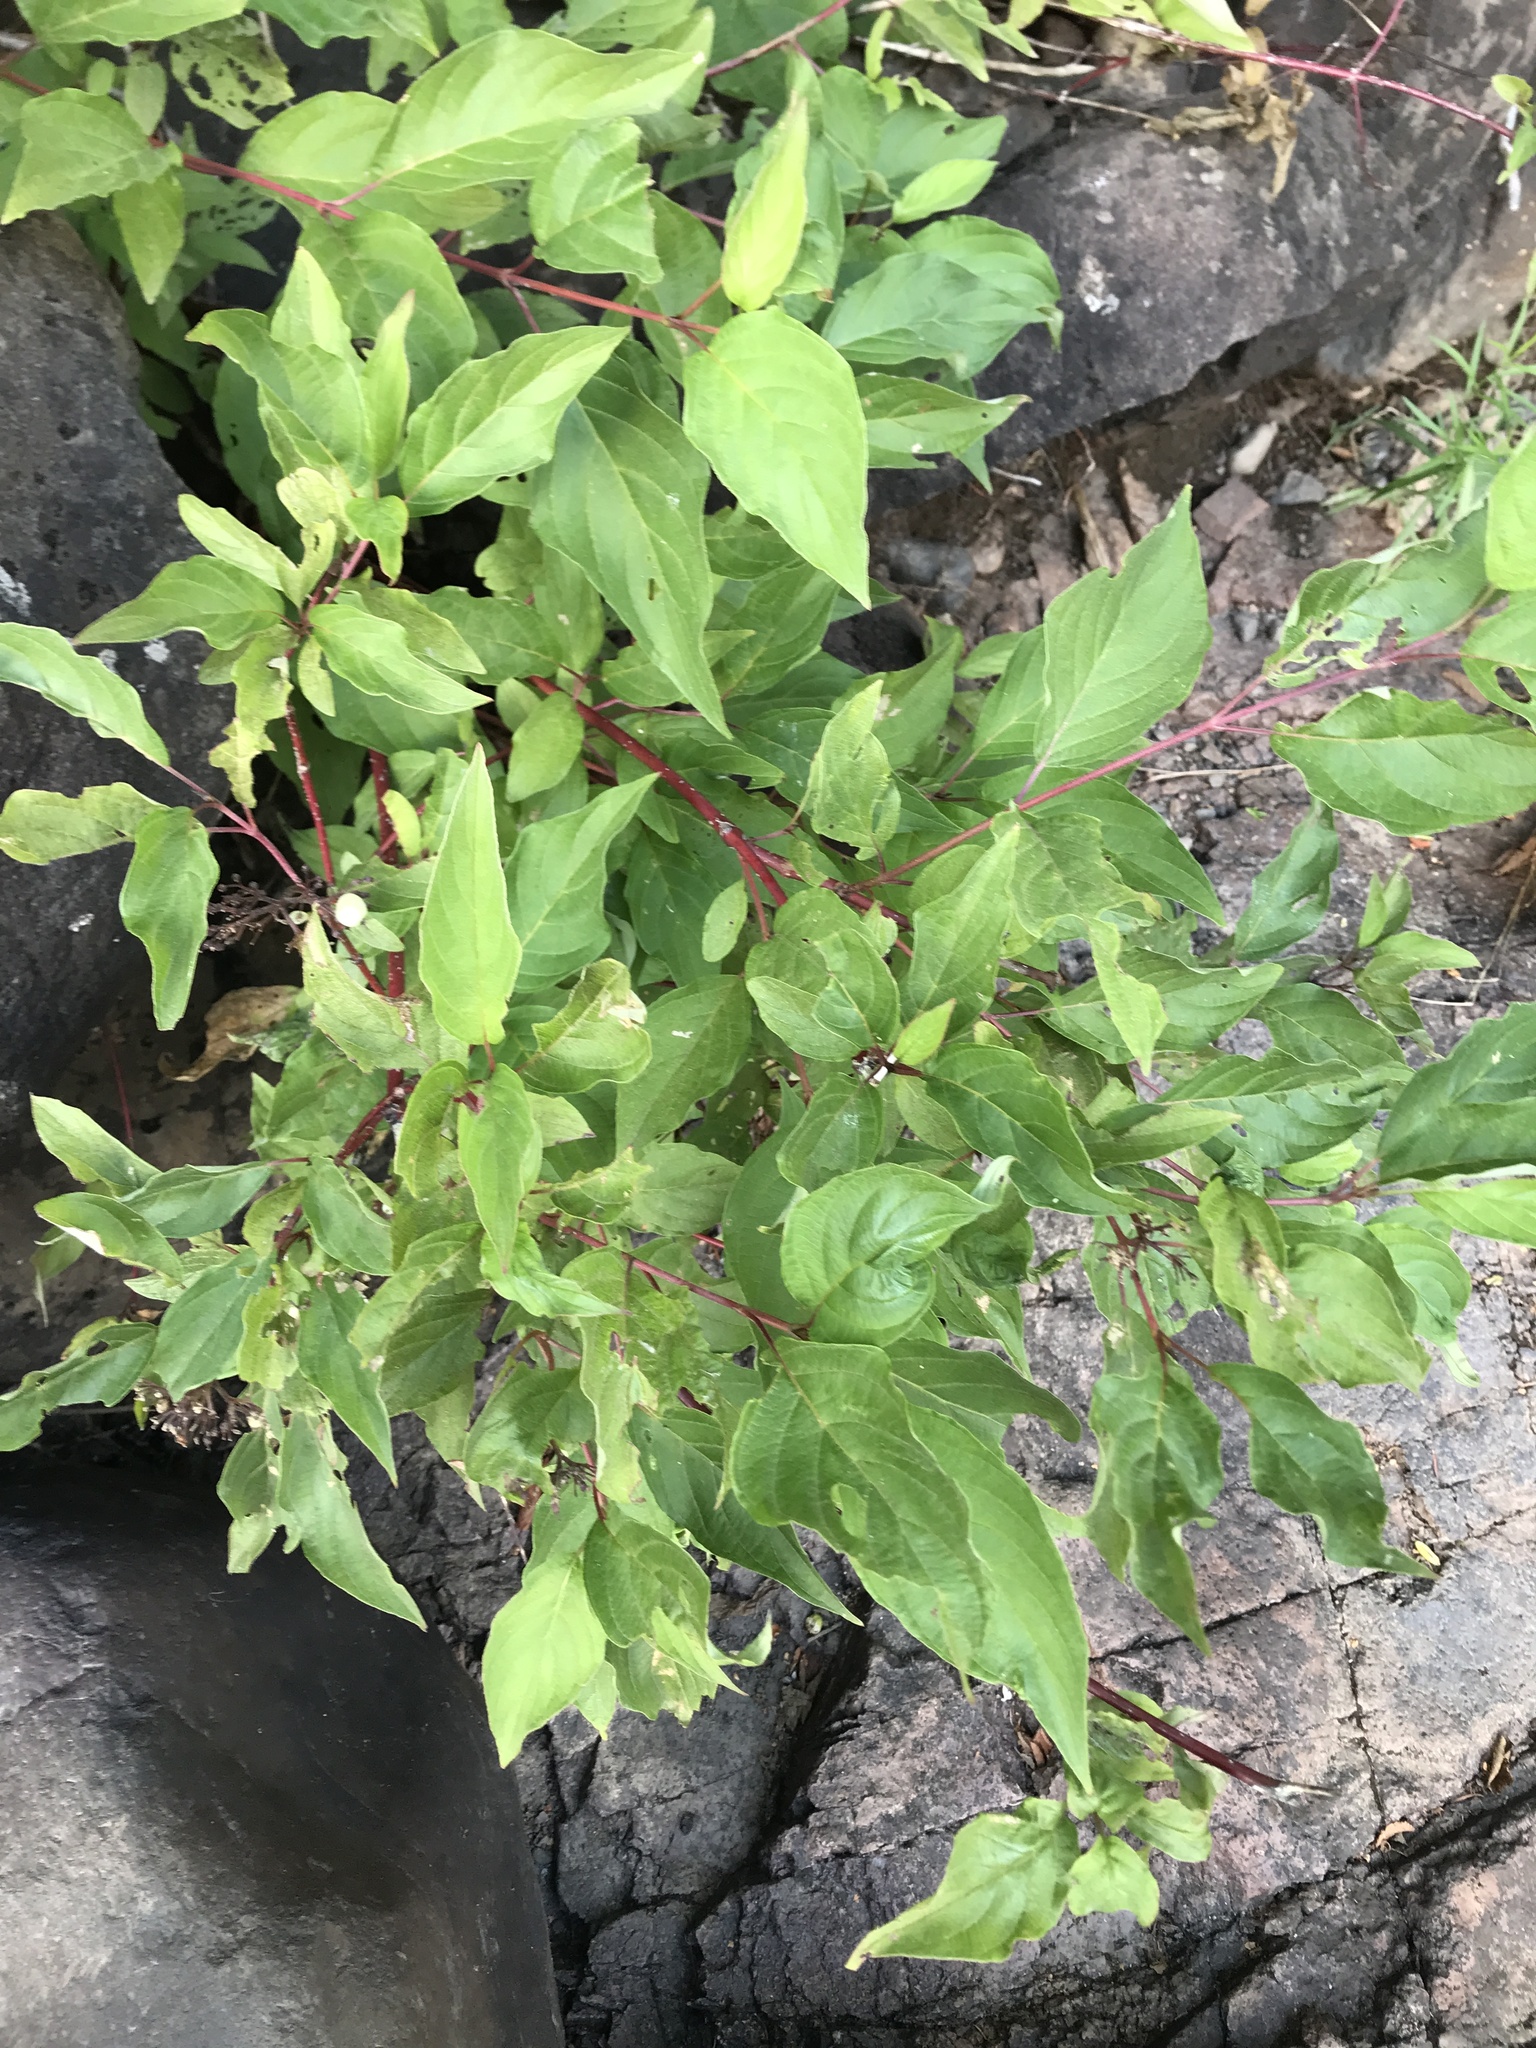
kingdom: Plantae
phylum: Tracheophyta
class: Magnoliopsida
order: Cornales
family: Cornaceae
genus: Cornus
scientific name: Cornus sericea
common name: Red-osier dogwood
